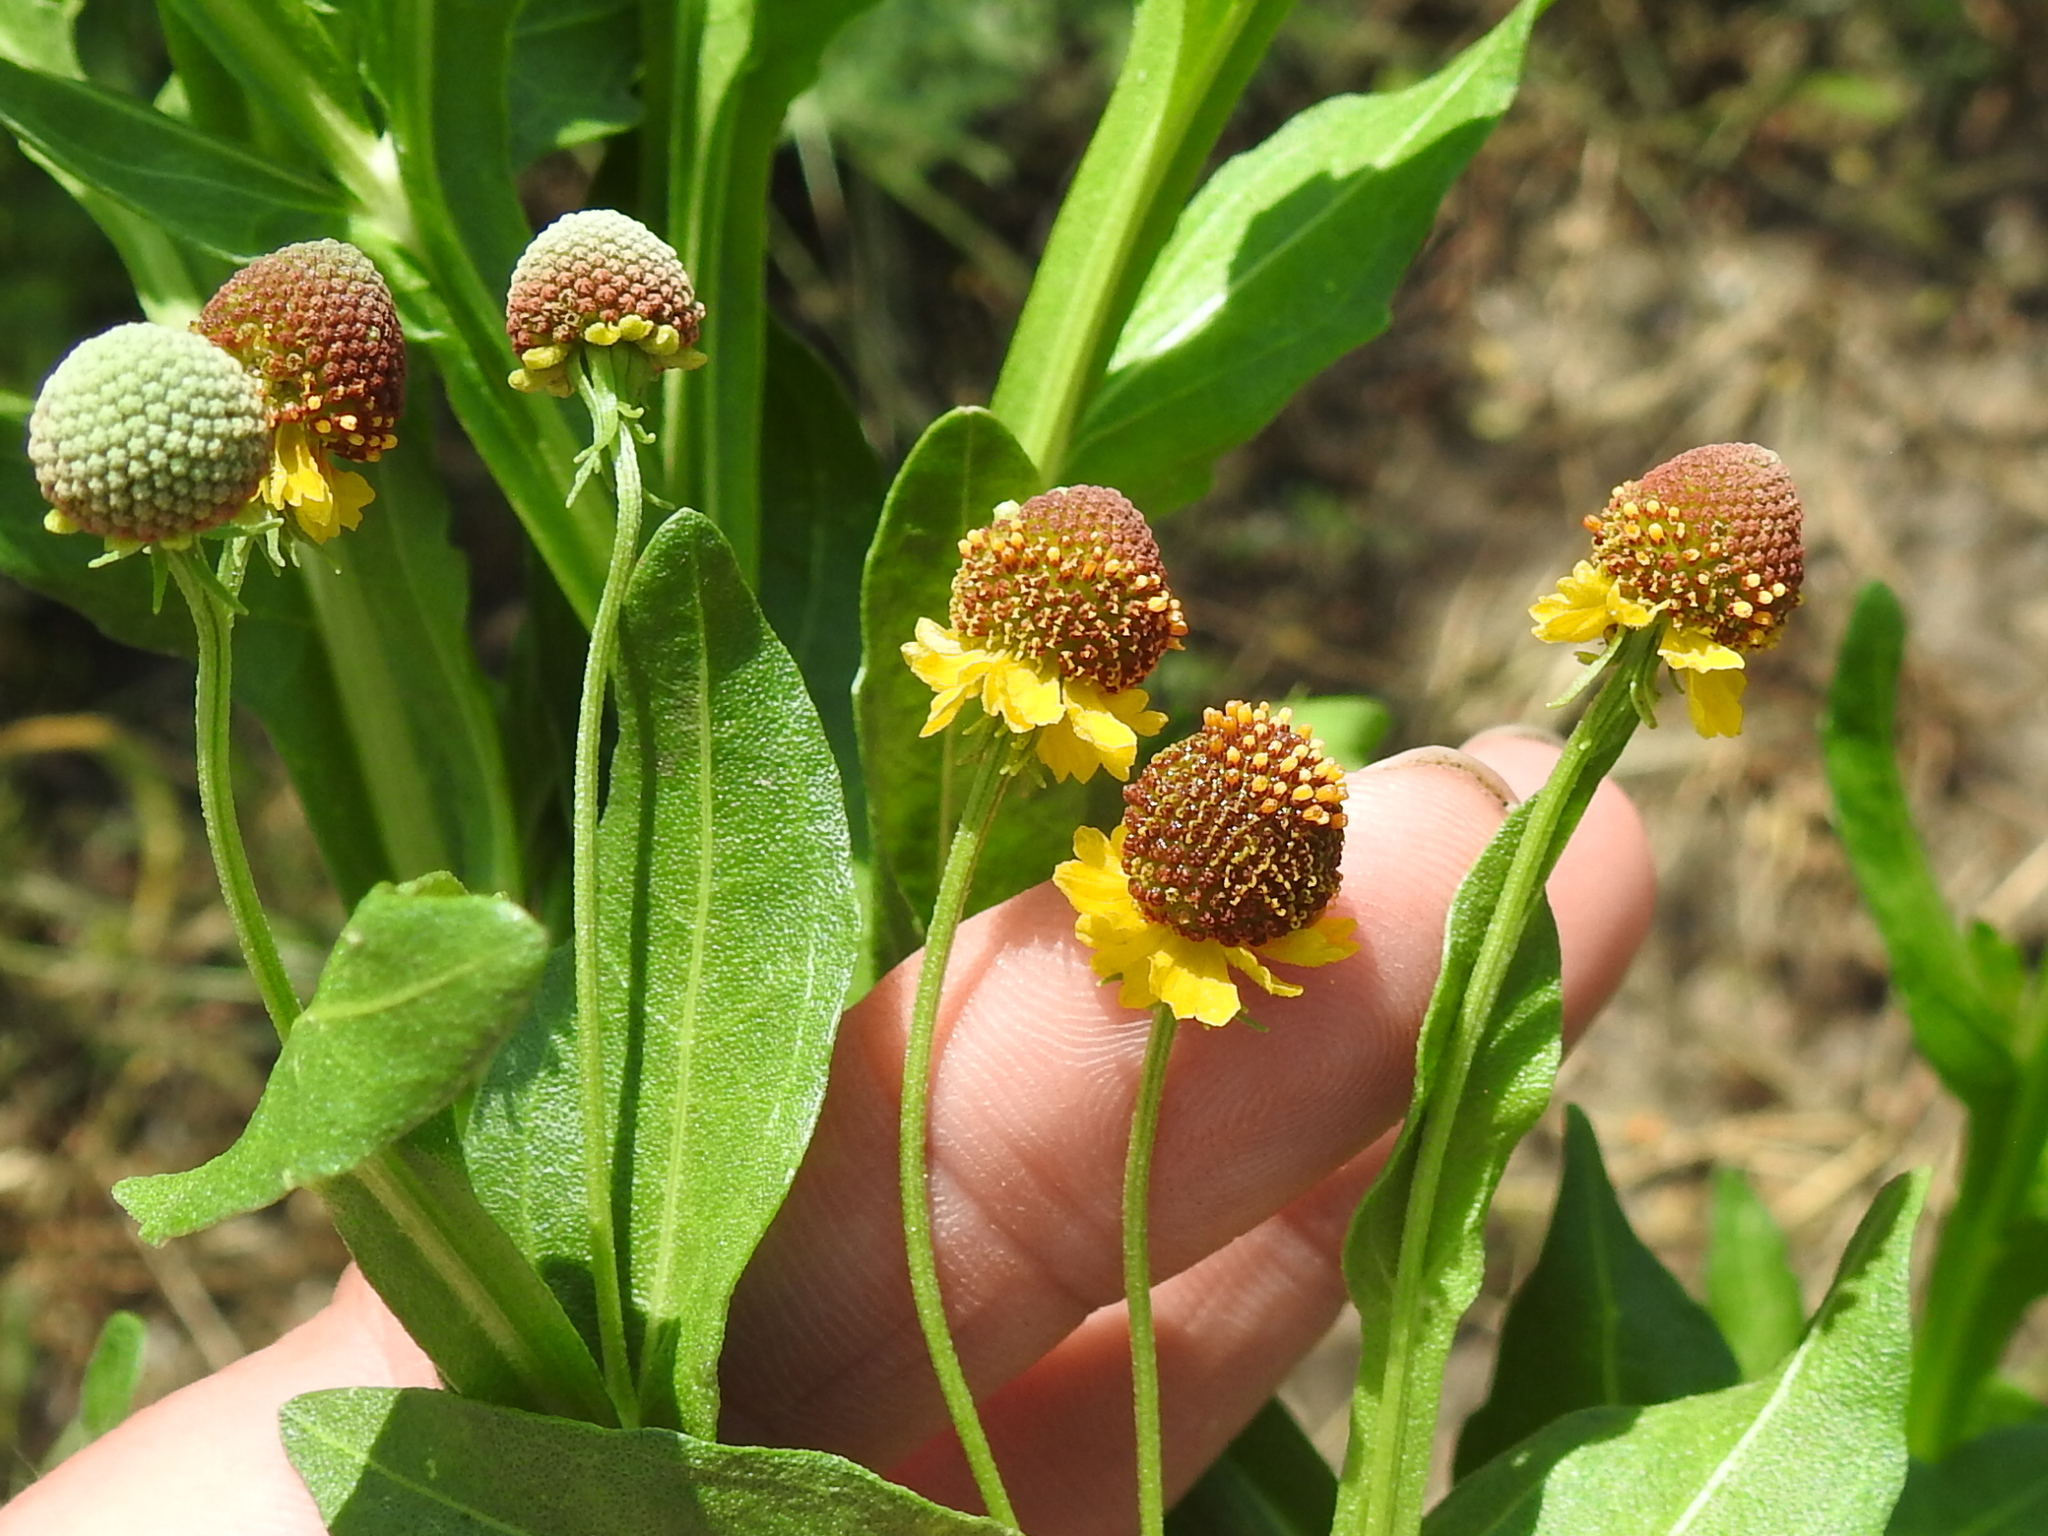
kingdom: Plantae
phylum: Tracheophyta
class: Magnoliopsida
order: Asterales
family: Asteraceae
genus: Helenium
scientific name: Helenium microcephalum
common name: Smallhead sneezeweed
